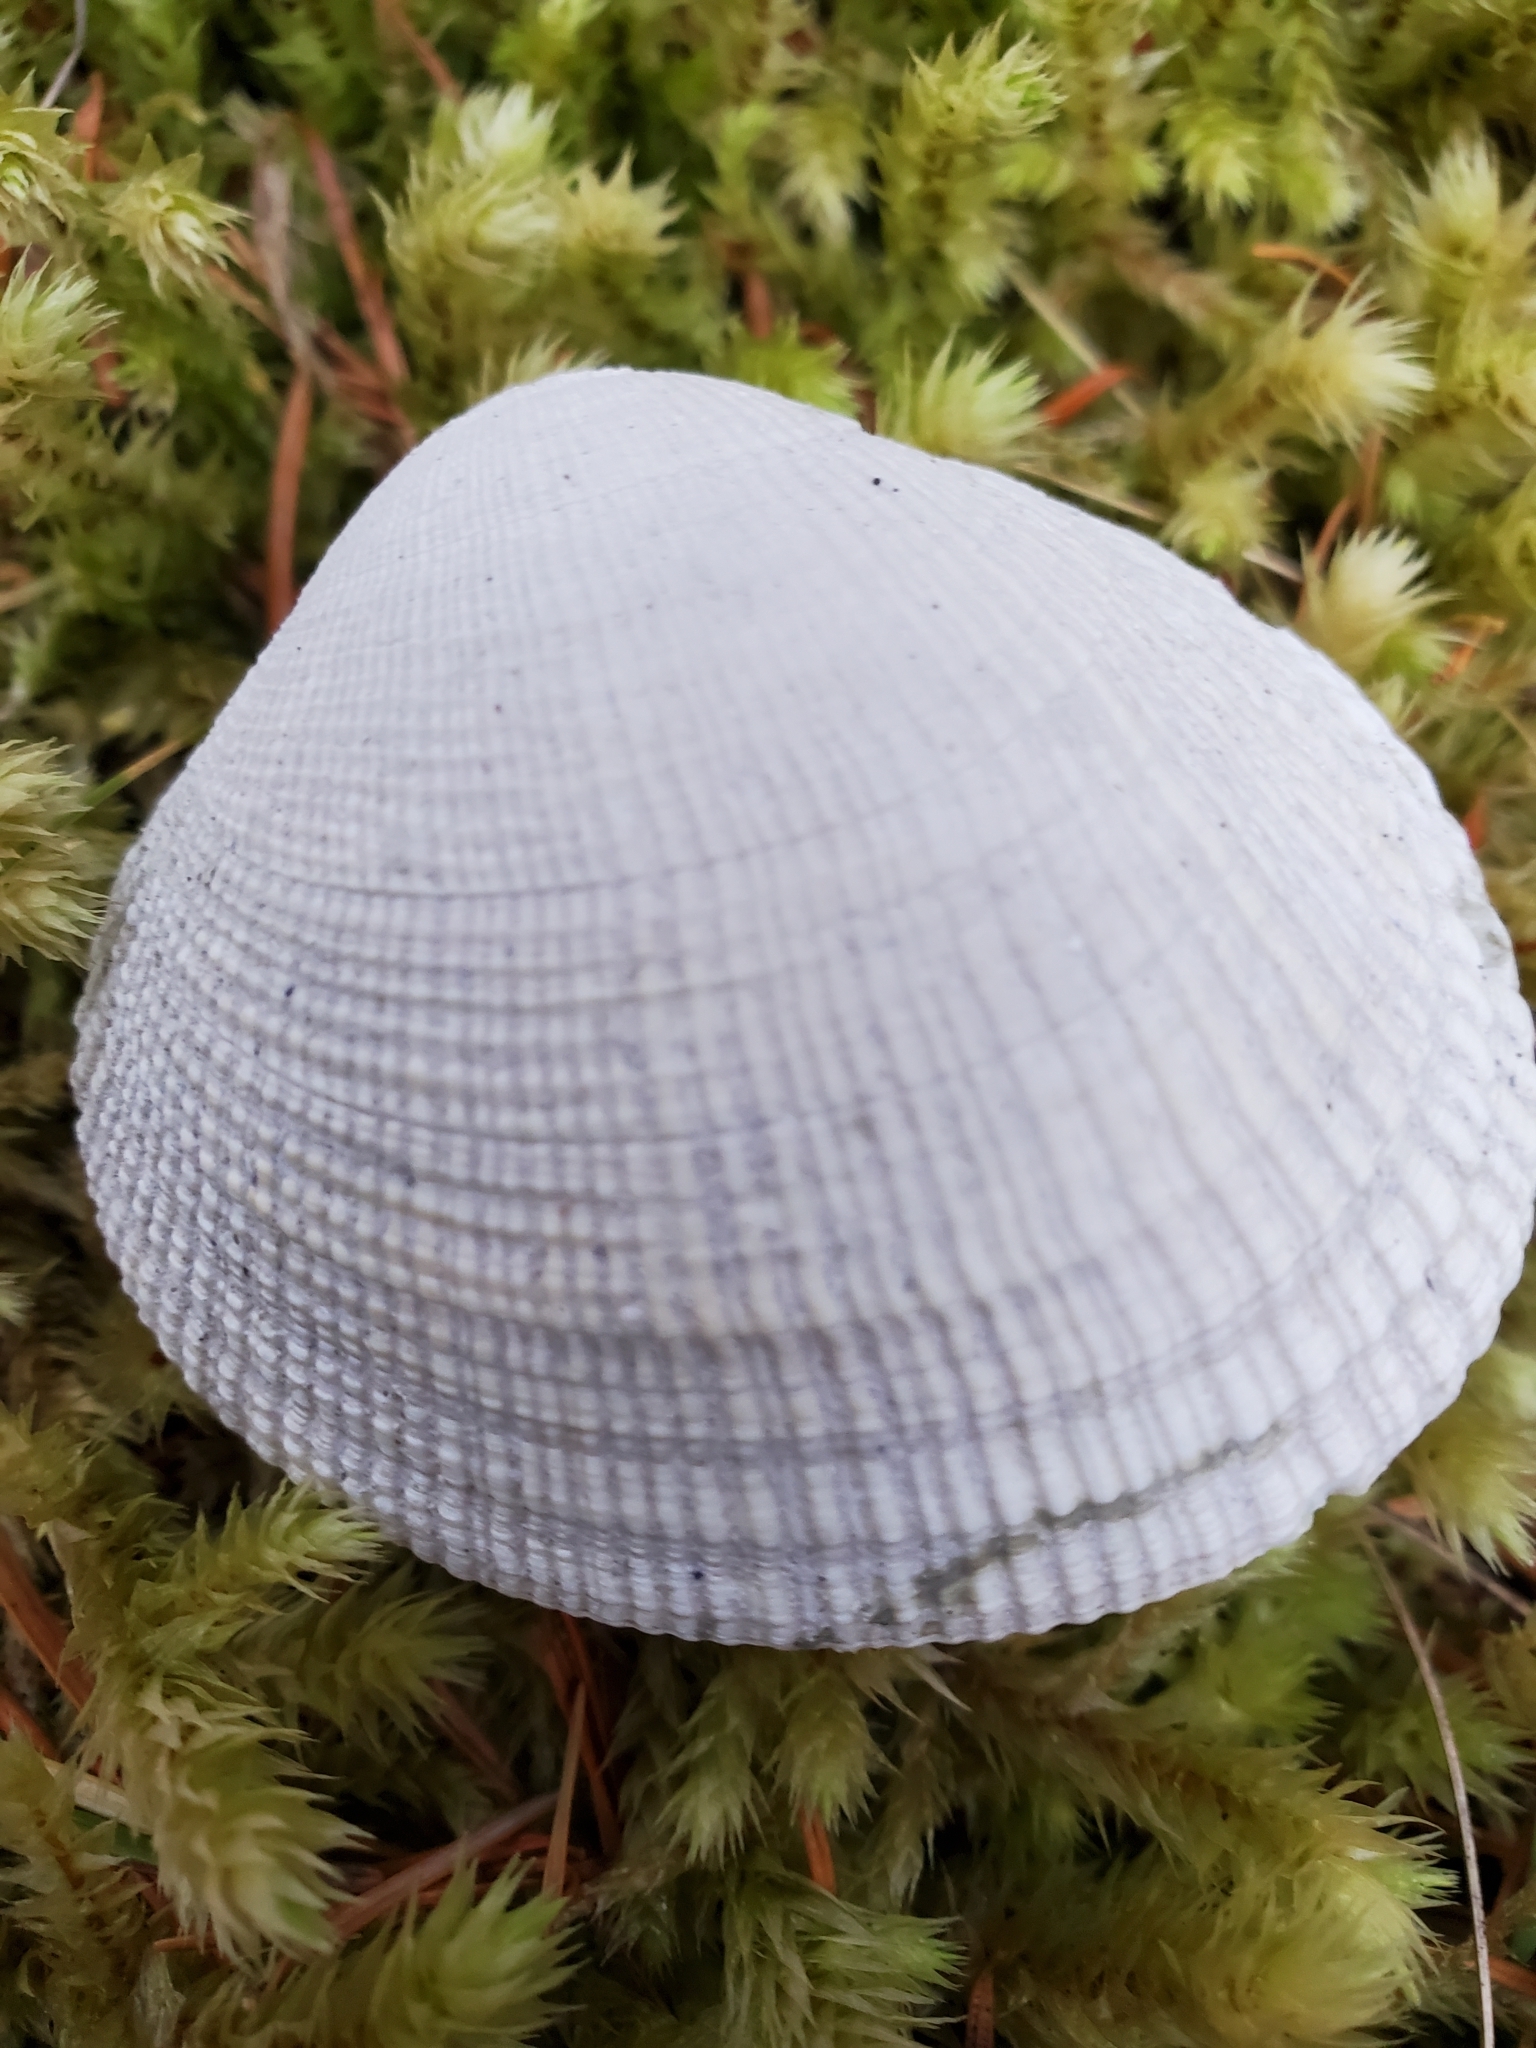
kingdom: Animalia
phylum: Mollusca
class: Bivalvia
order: Venerida
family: Veneridae
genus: Leukoma
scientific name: Leukoma staminea
